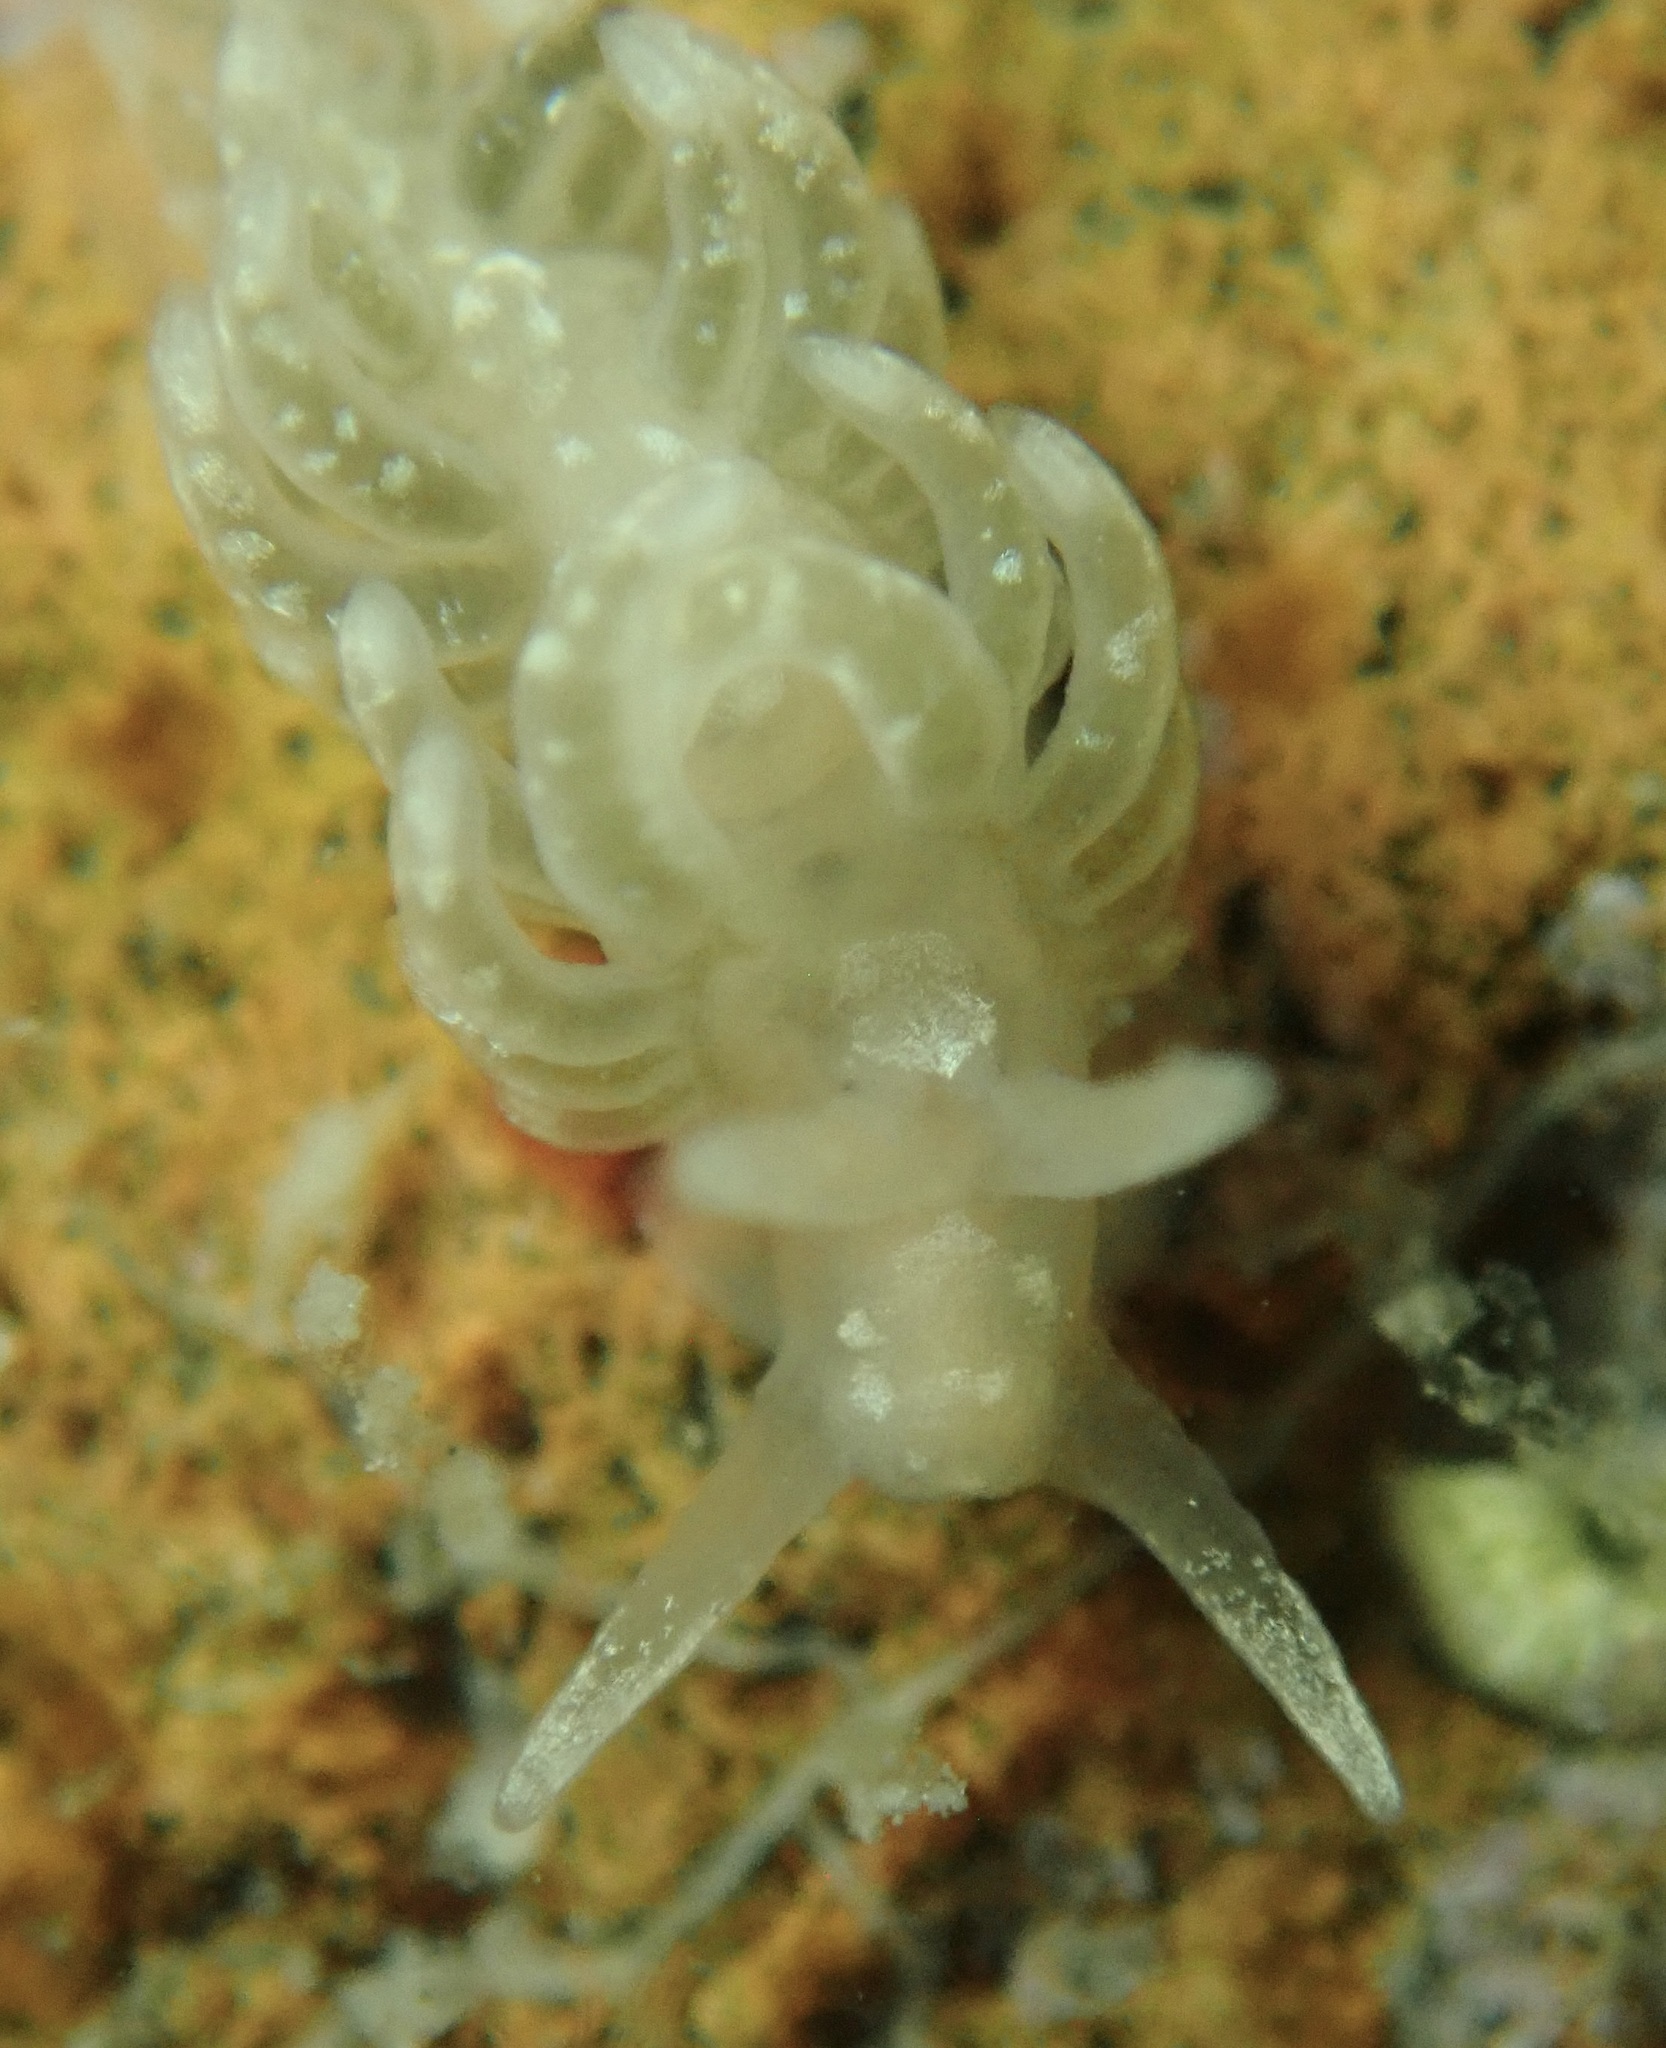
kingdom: Animalia
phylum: Mollusca
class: Gastropoda
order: Nudibranchia
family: Aeolidiidae
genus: Spurilla
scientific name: Spurilla braziliana
